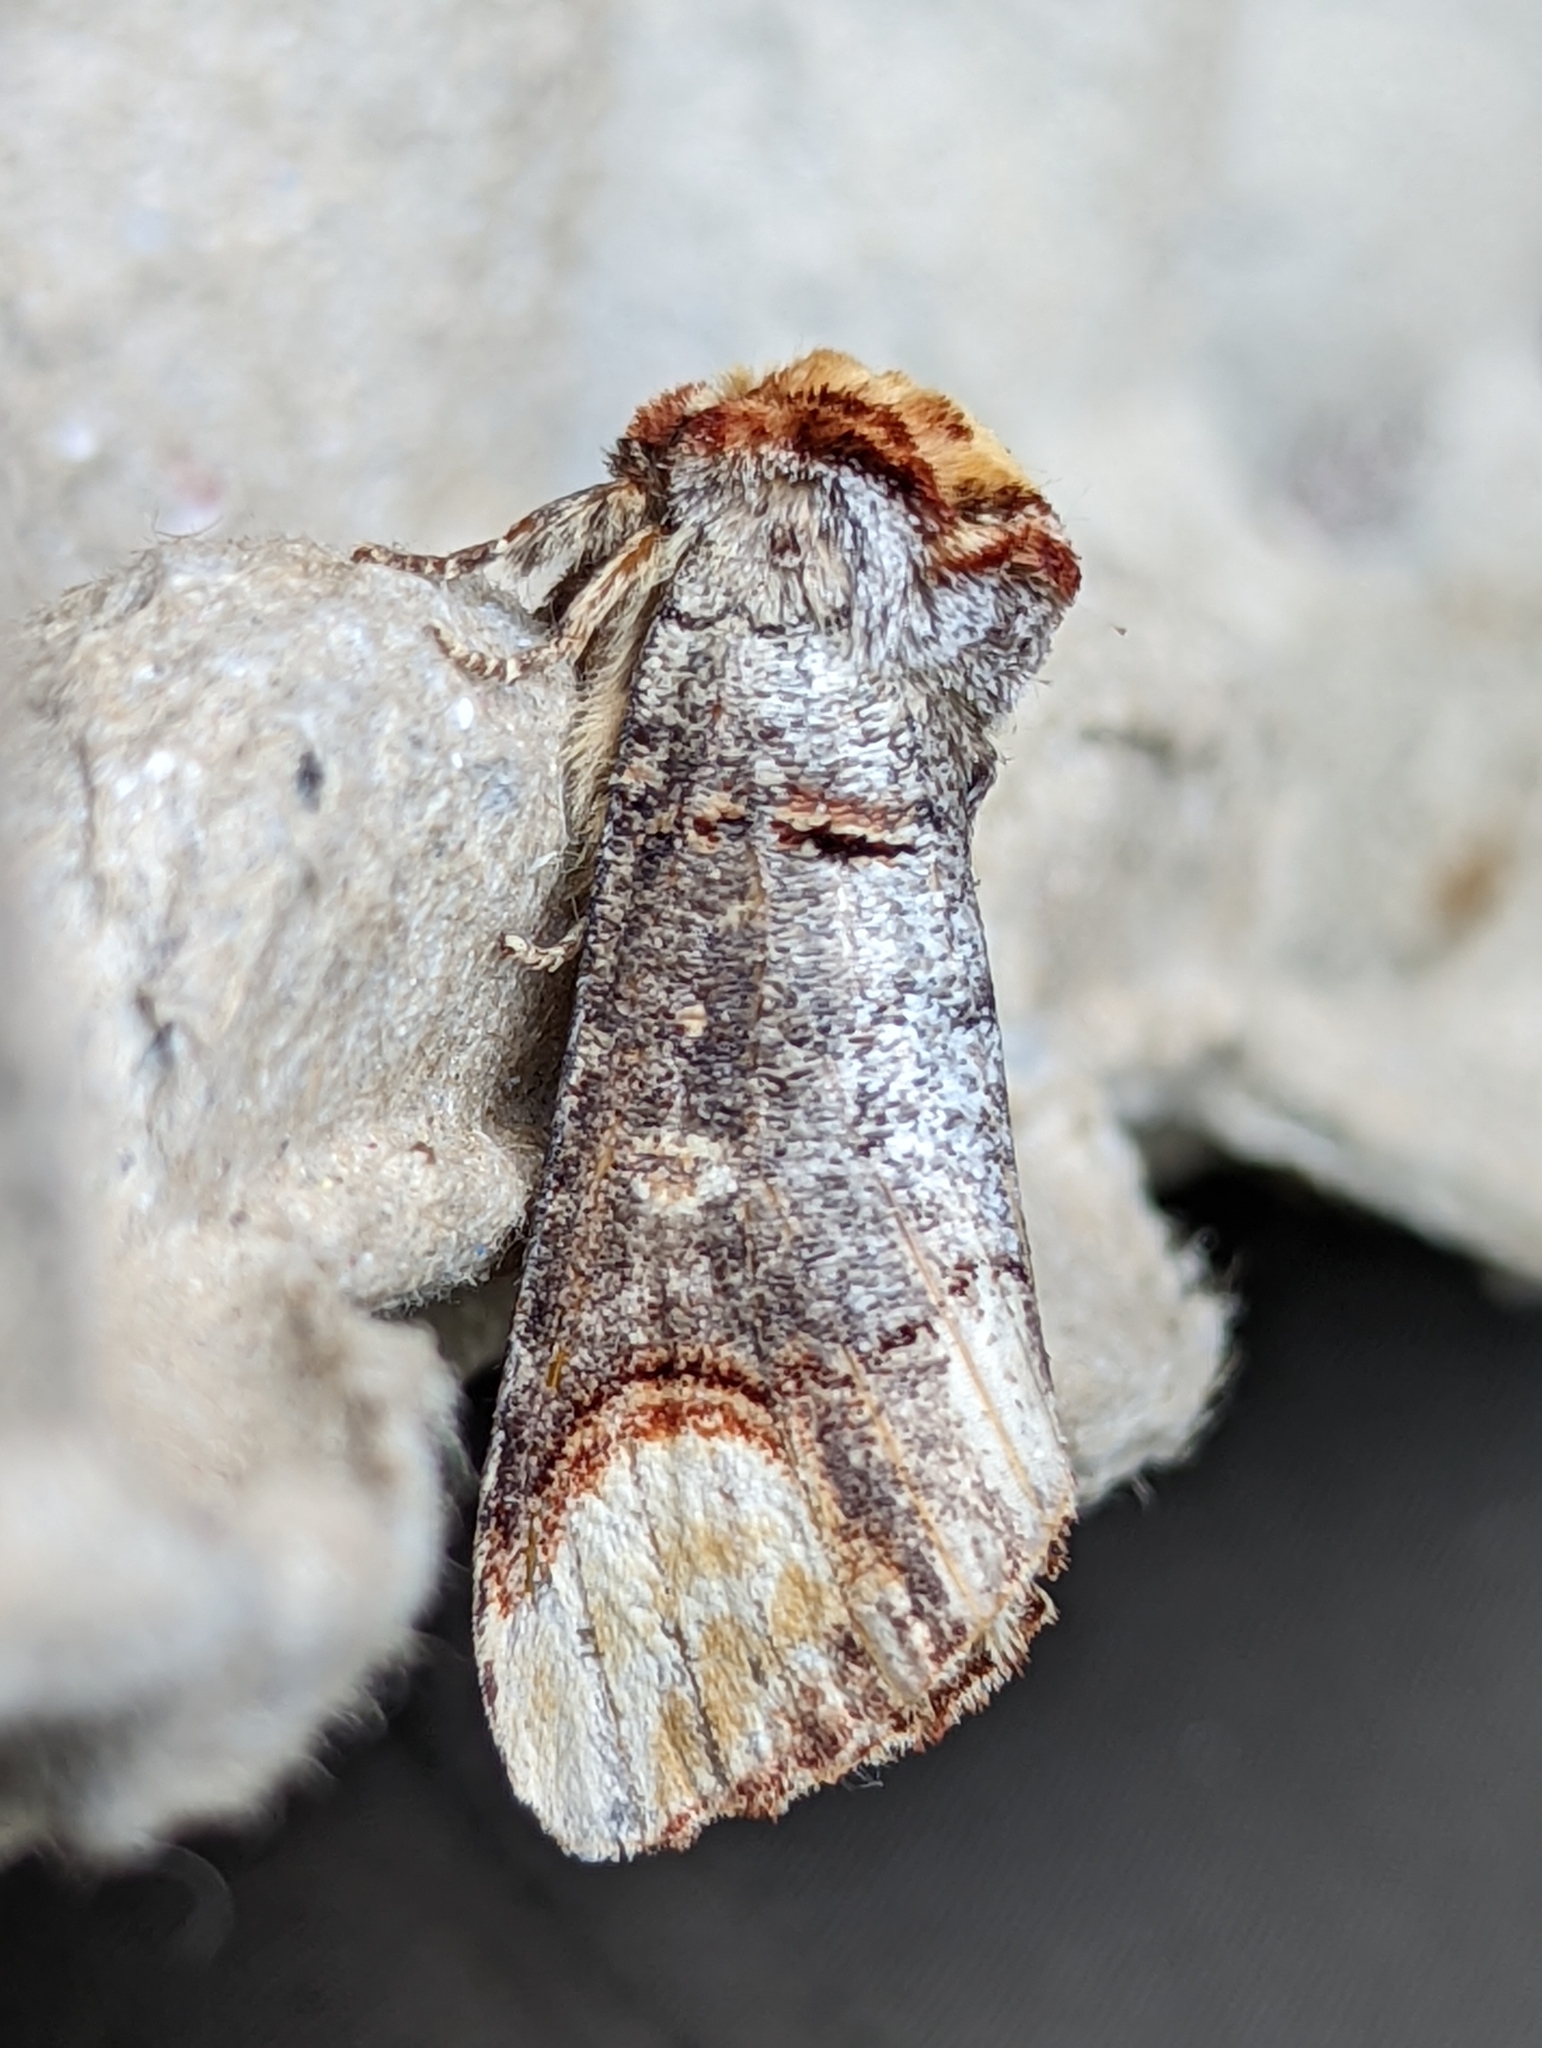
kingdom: Animalia
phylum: Arthropoda
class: Insecta
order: Lepidoptera
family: Notodontidae
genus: Phalera
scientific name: Phalera bucephala
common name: Buff-tip
